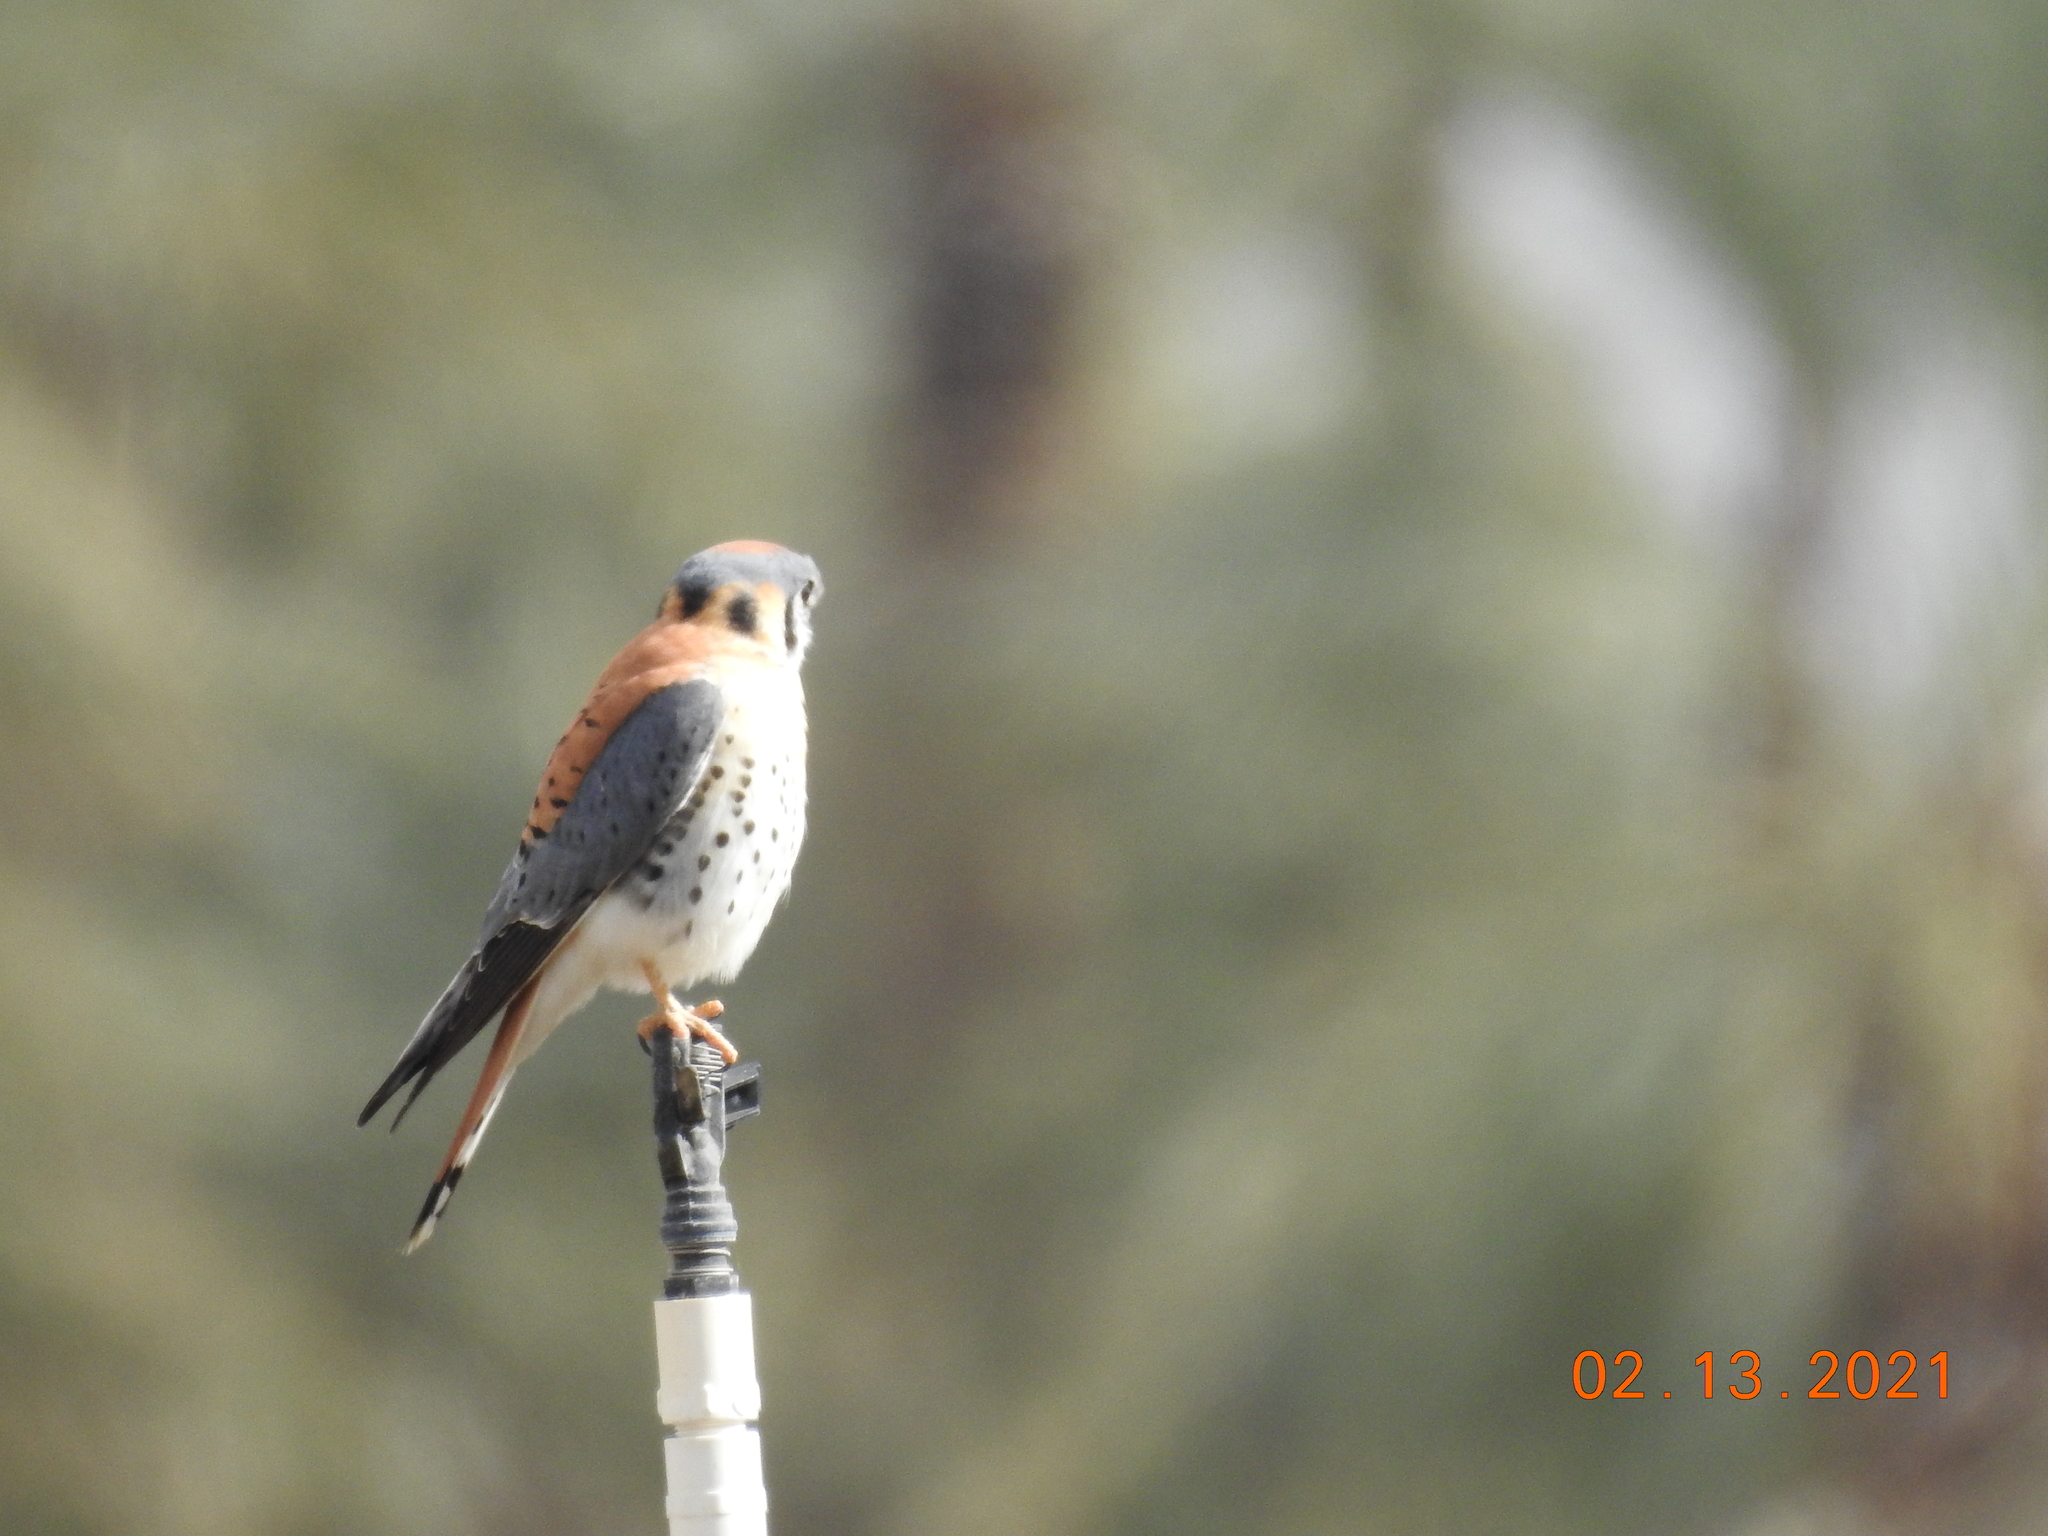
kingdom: Animalia
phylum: Chordata
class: Aves
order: Falconiformes
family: Falconidae
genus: Falco
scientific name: Falco sparverius
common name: American kestrel
